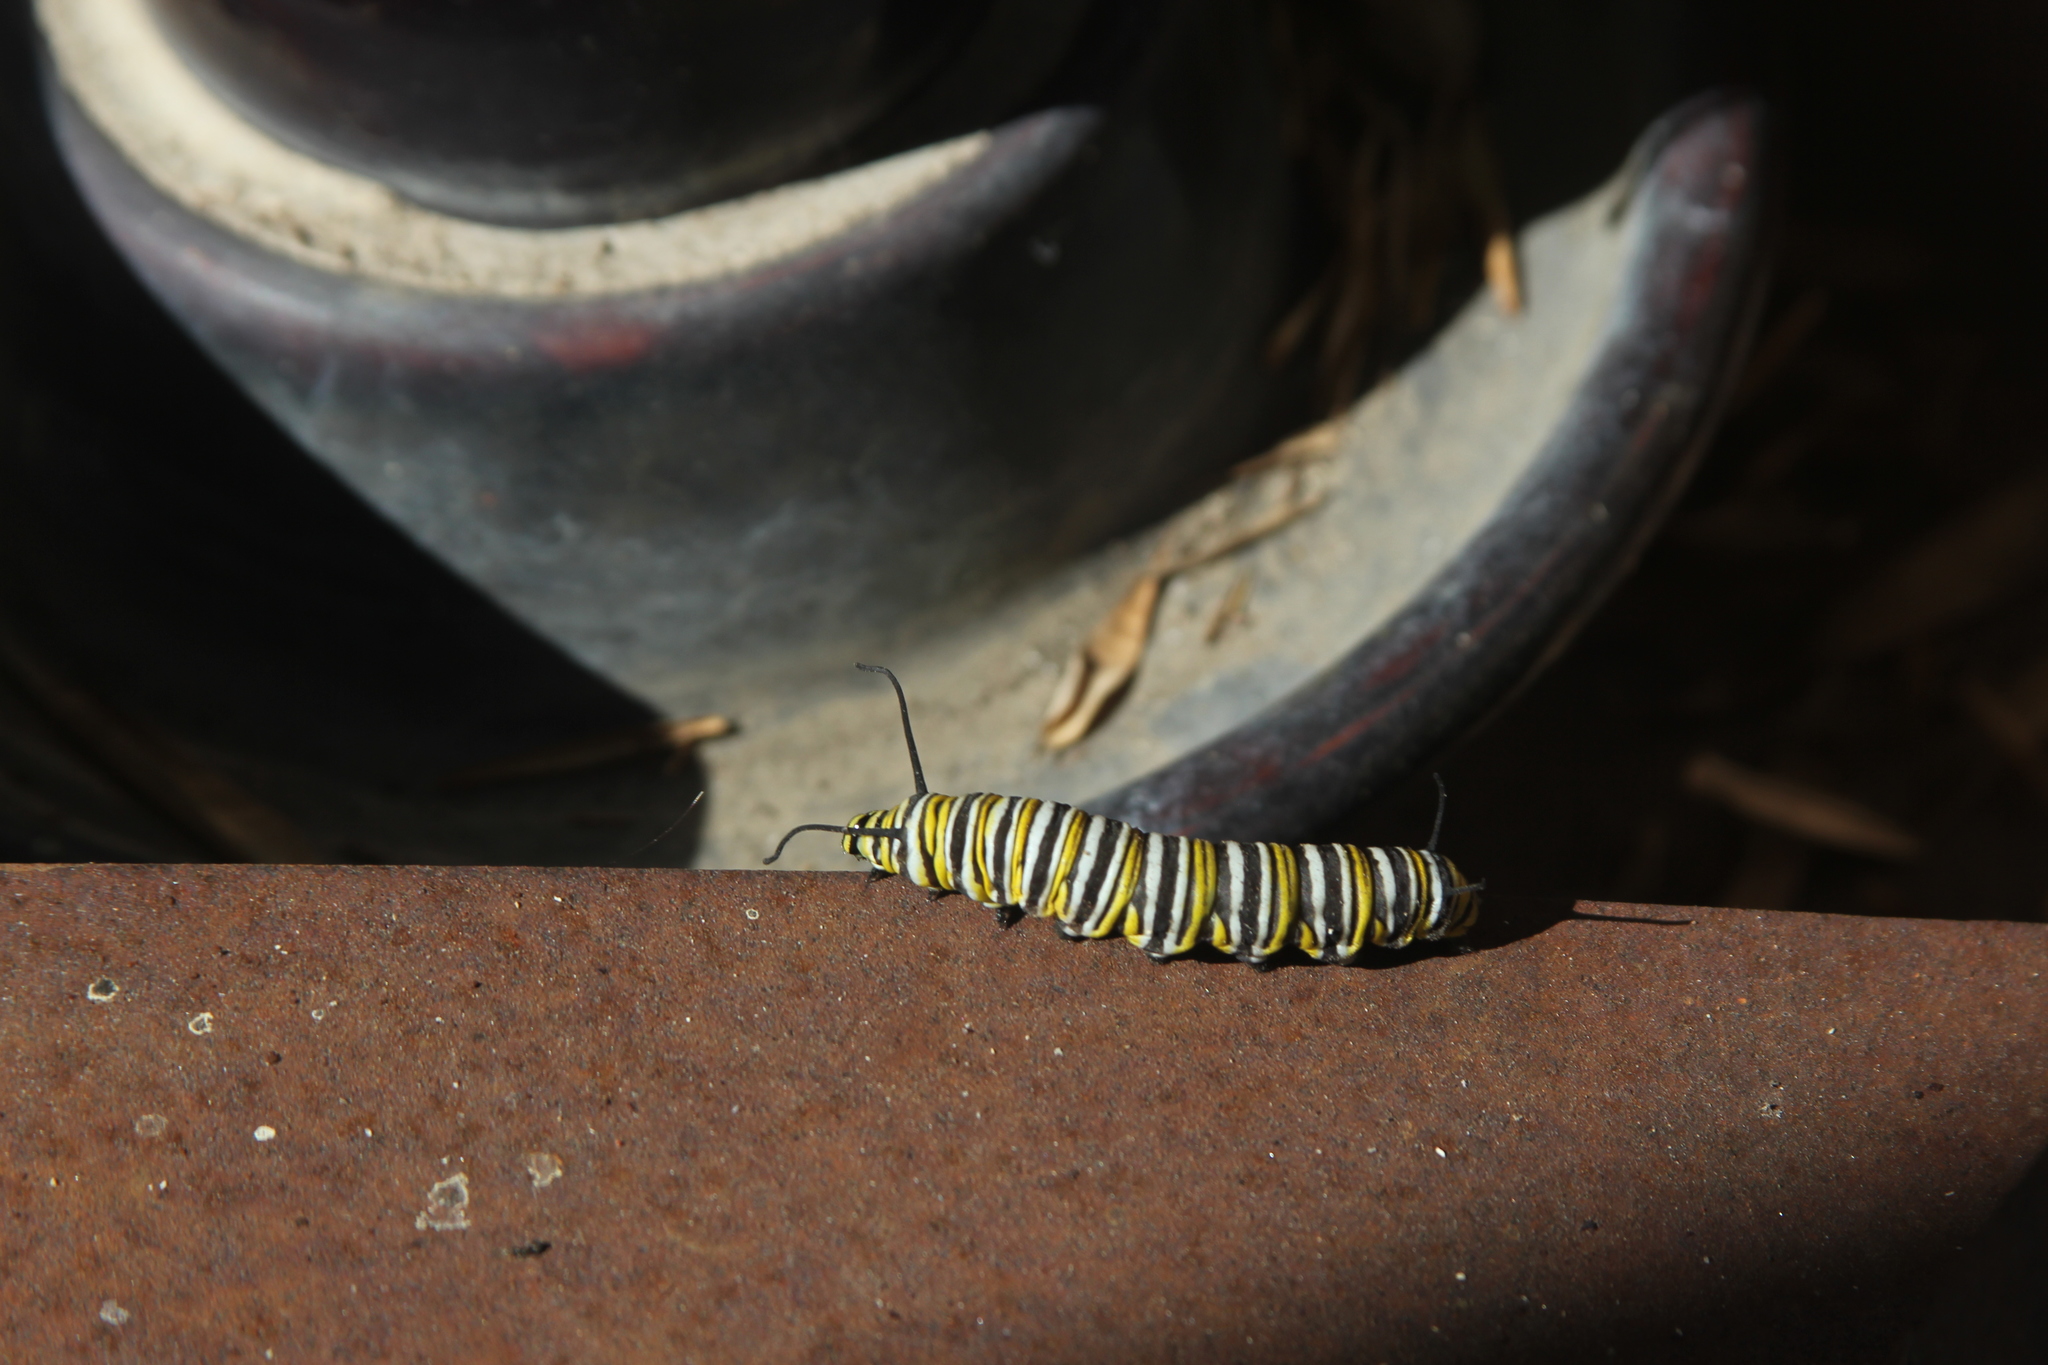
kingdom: Animalia
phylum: Arthropoda
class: Insecta
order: Lepidoptera
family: Nymphalidae
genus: Danaus
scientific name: Danaus plexippus
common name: Monarch
